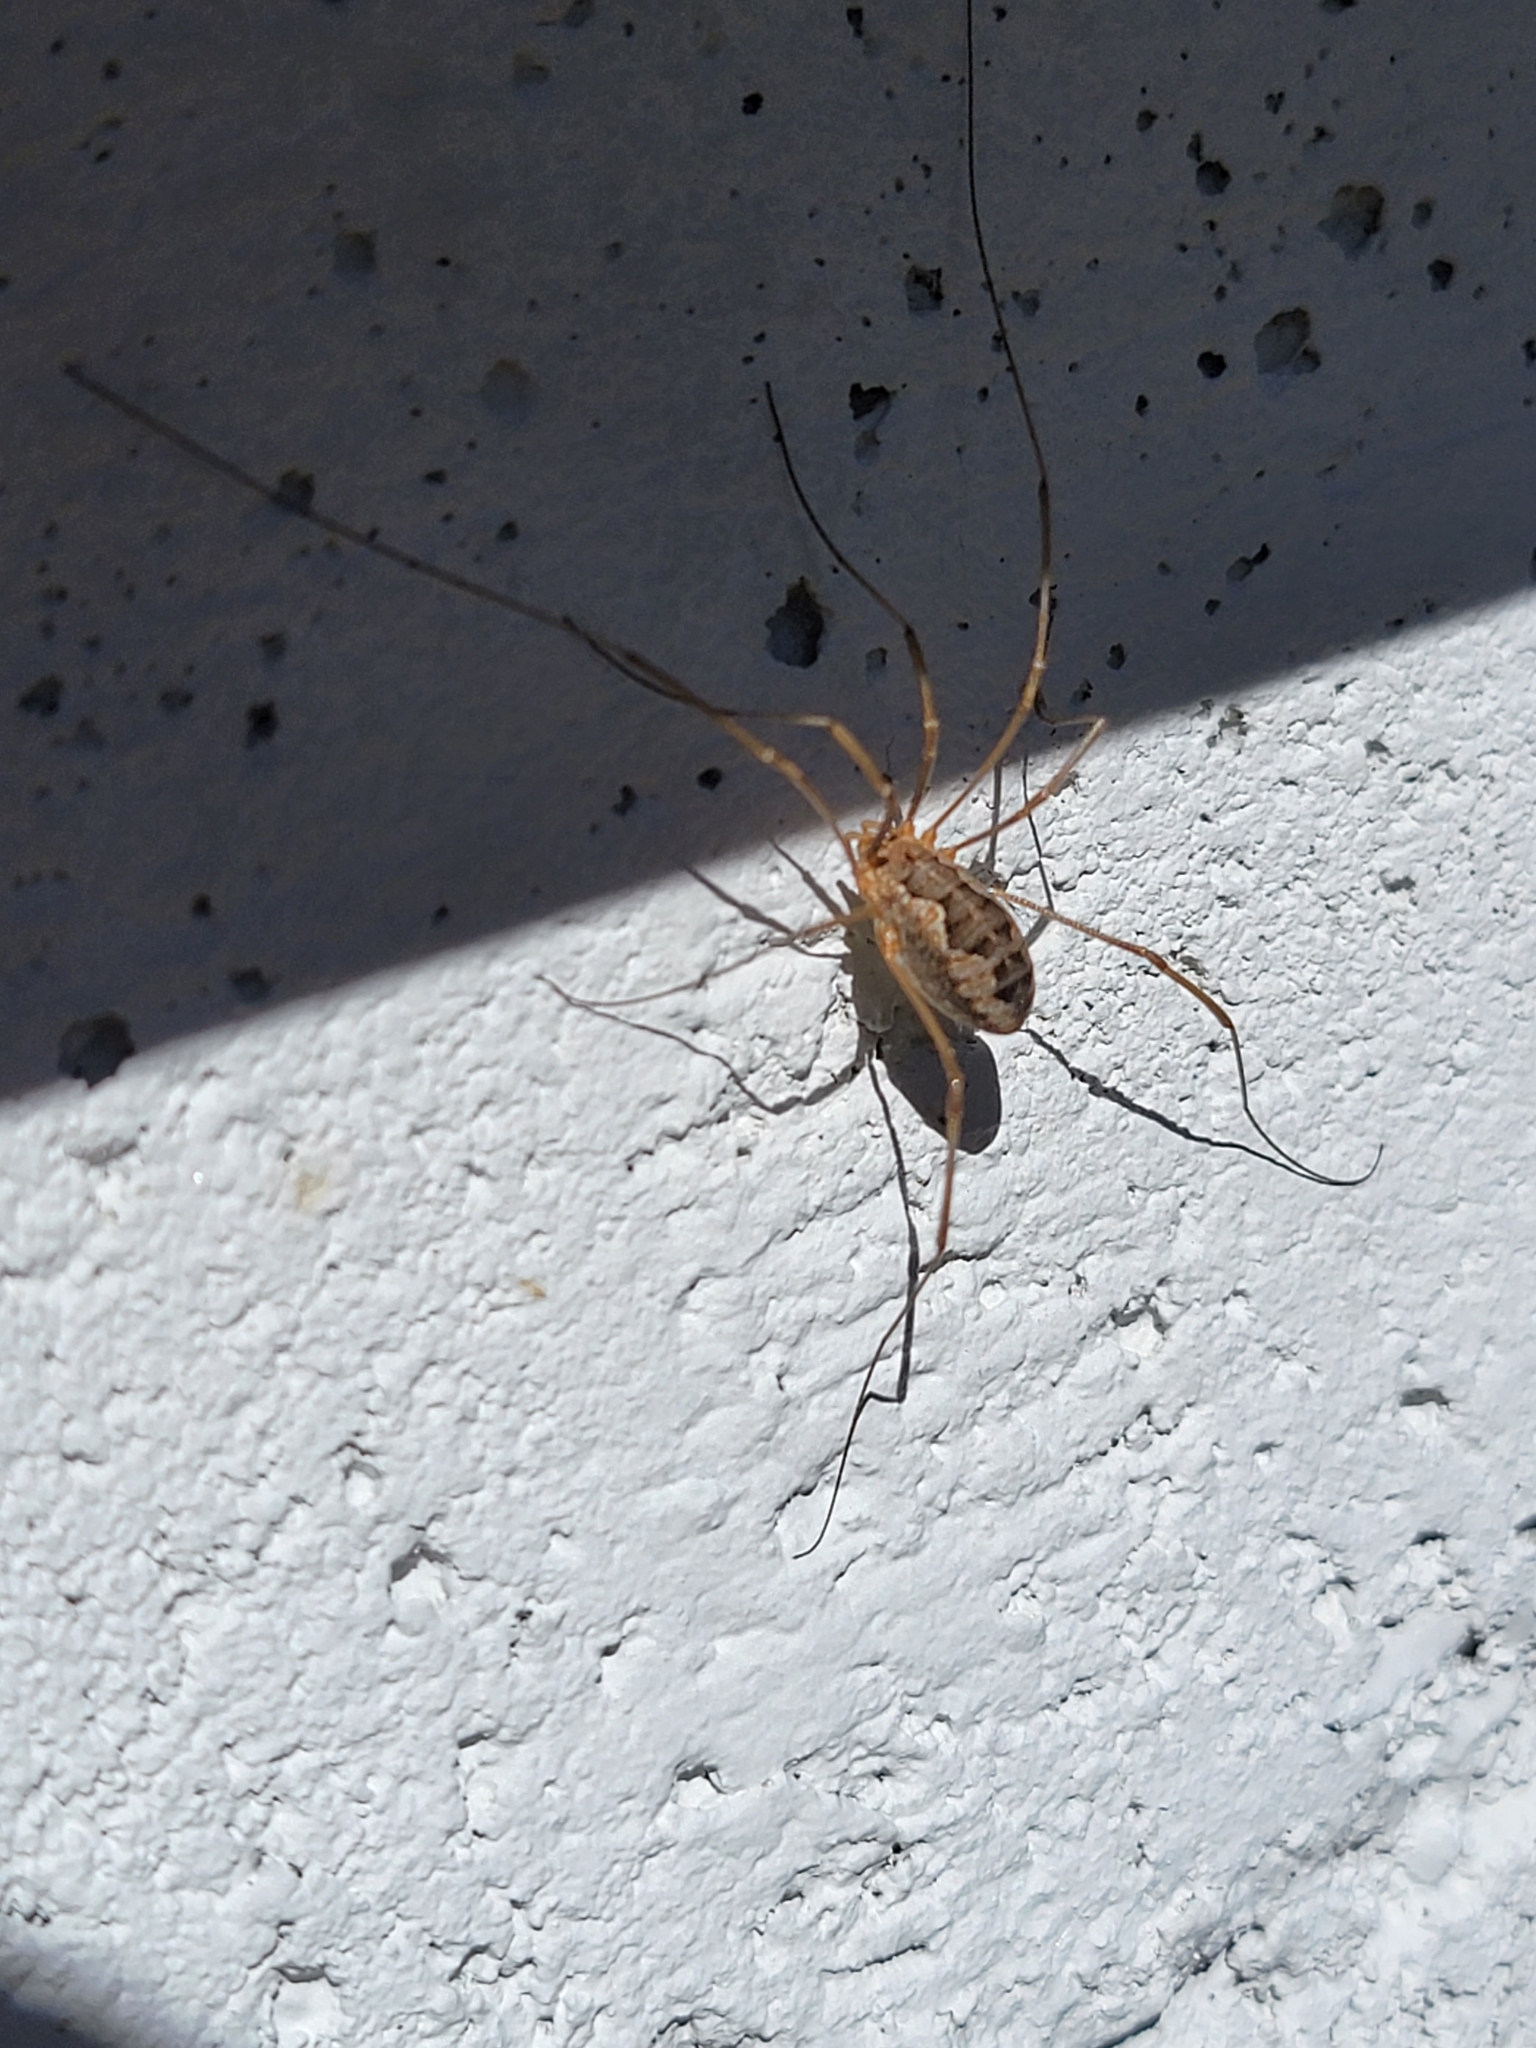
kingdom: Animalia
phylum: Arthropoda
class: Arachnida
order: Opiliones
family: Phalangiidae
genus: Phalangium
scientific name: Phalangium opilio
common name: Daddy longleg
